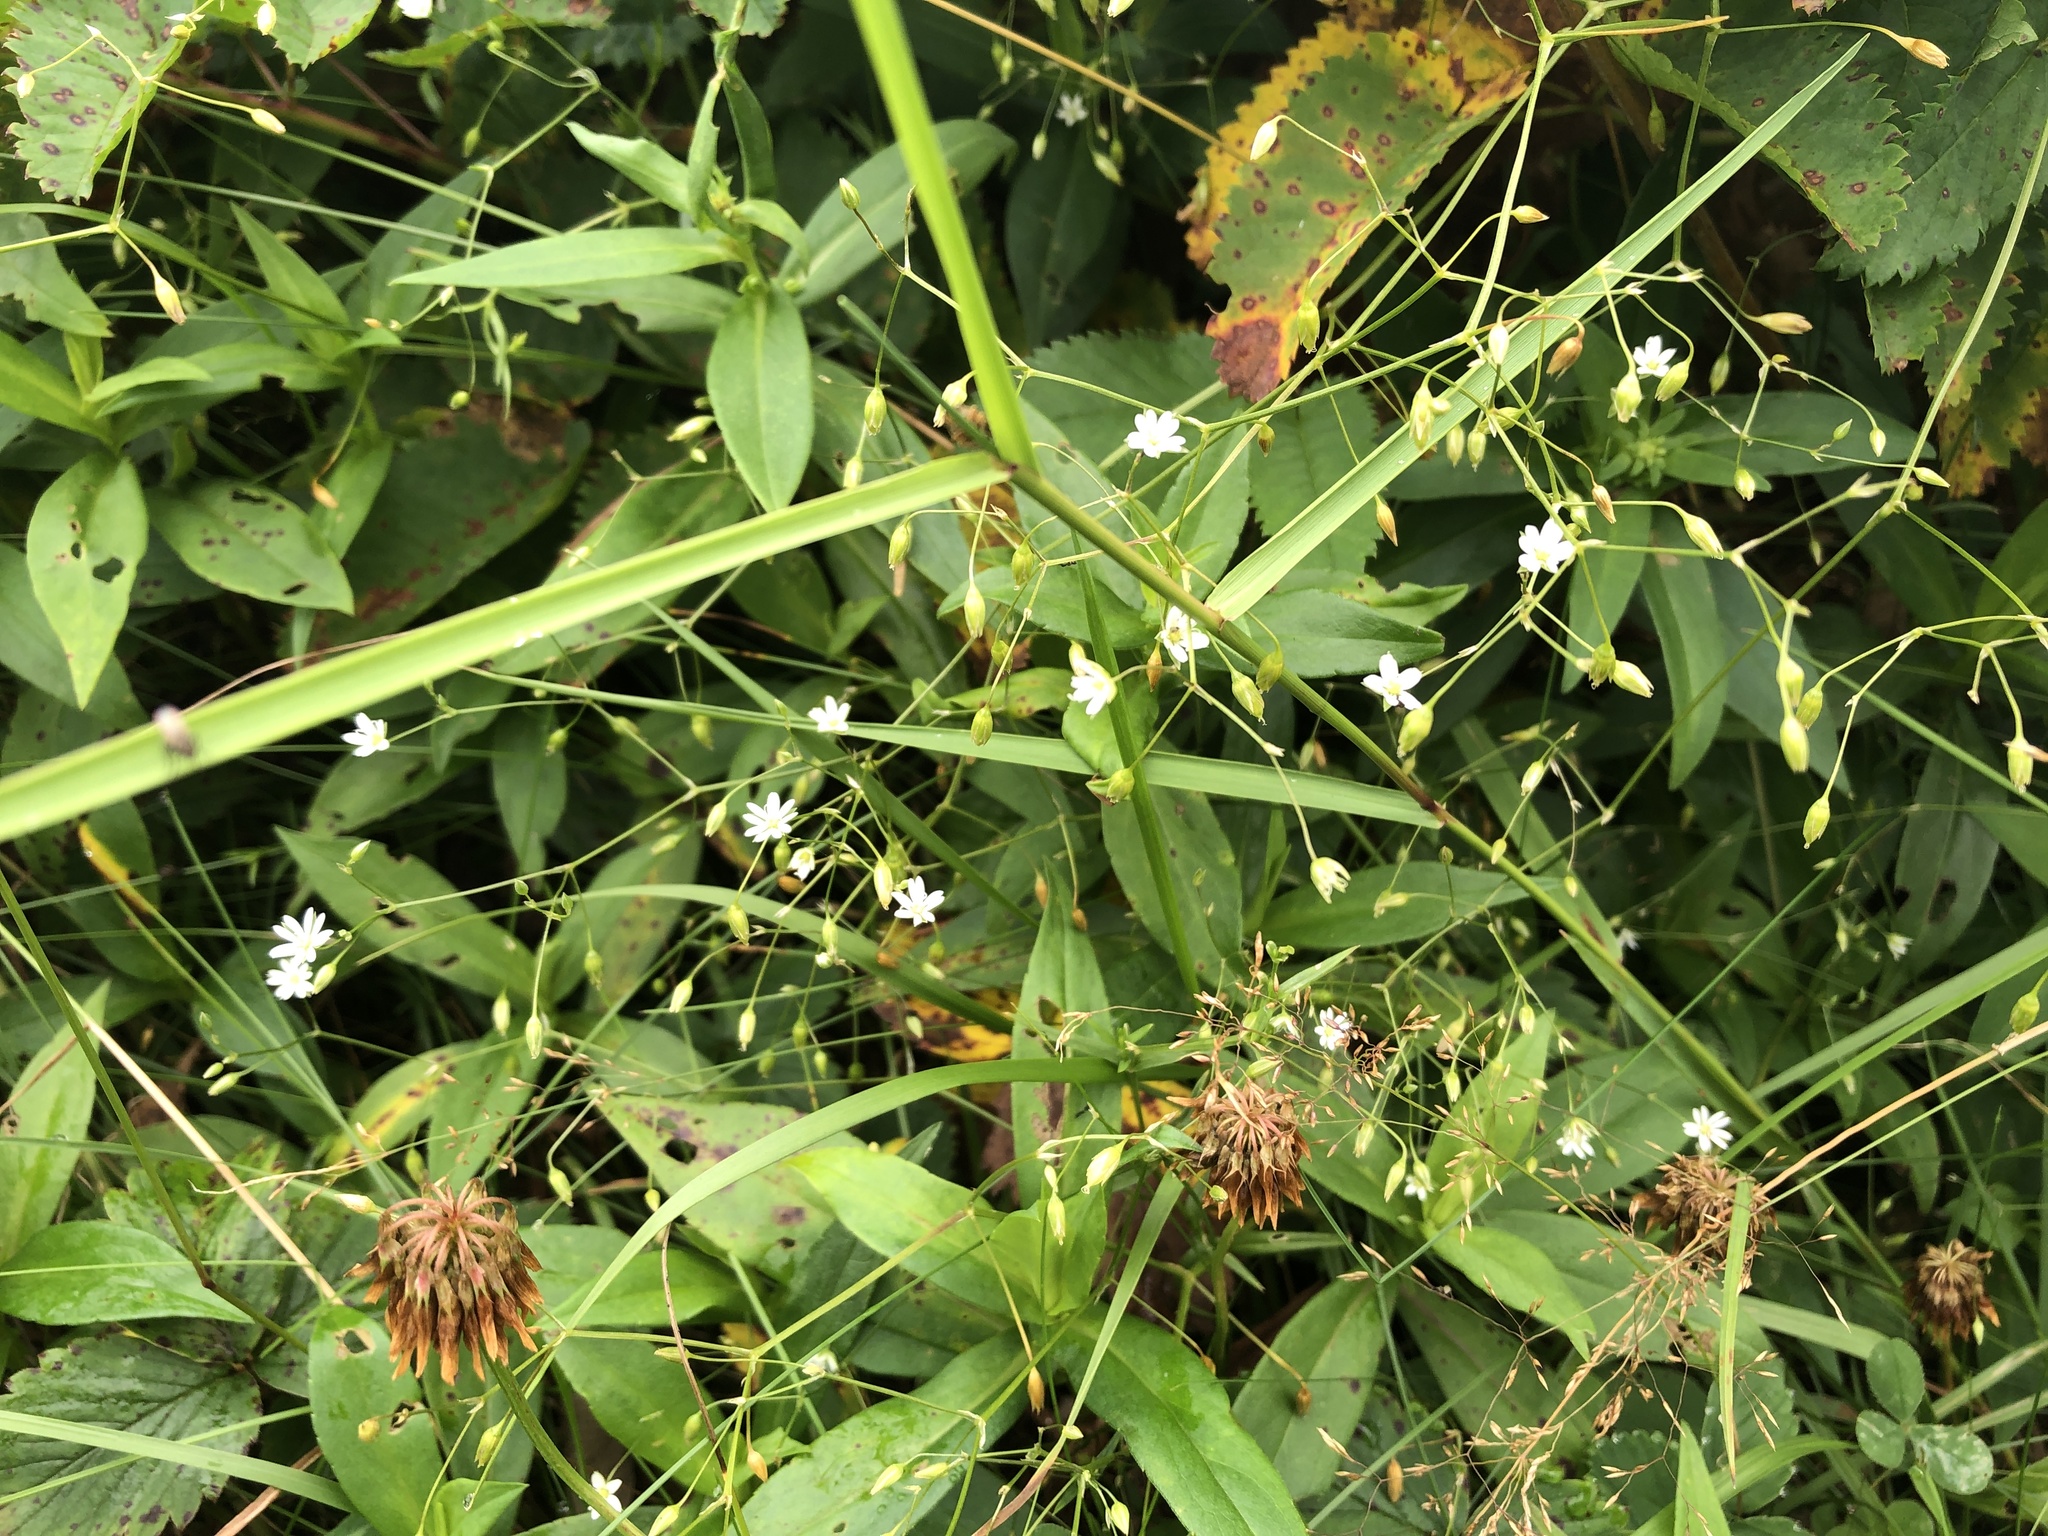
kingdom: Plantae
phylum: Tracheophyta
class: Magnoliopsida
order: Caryophyllales
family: Caryophyllaceae
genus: Stellaria
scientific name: Stellaria graminea
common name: Grass-like starwort
